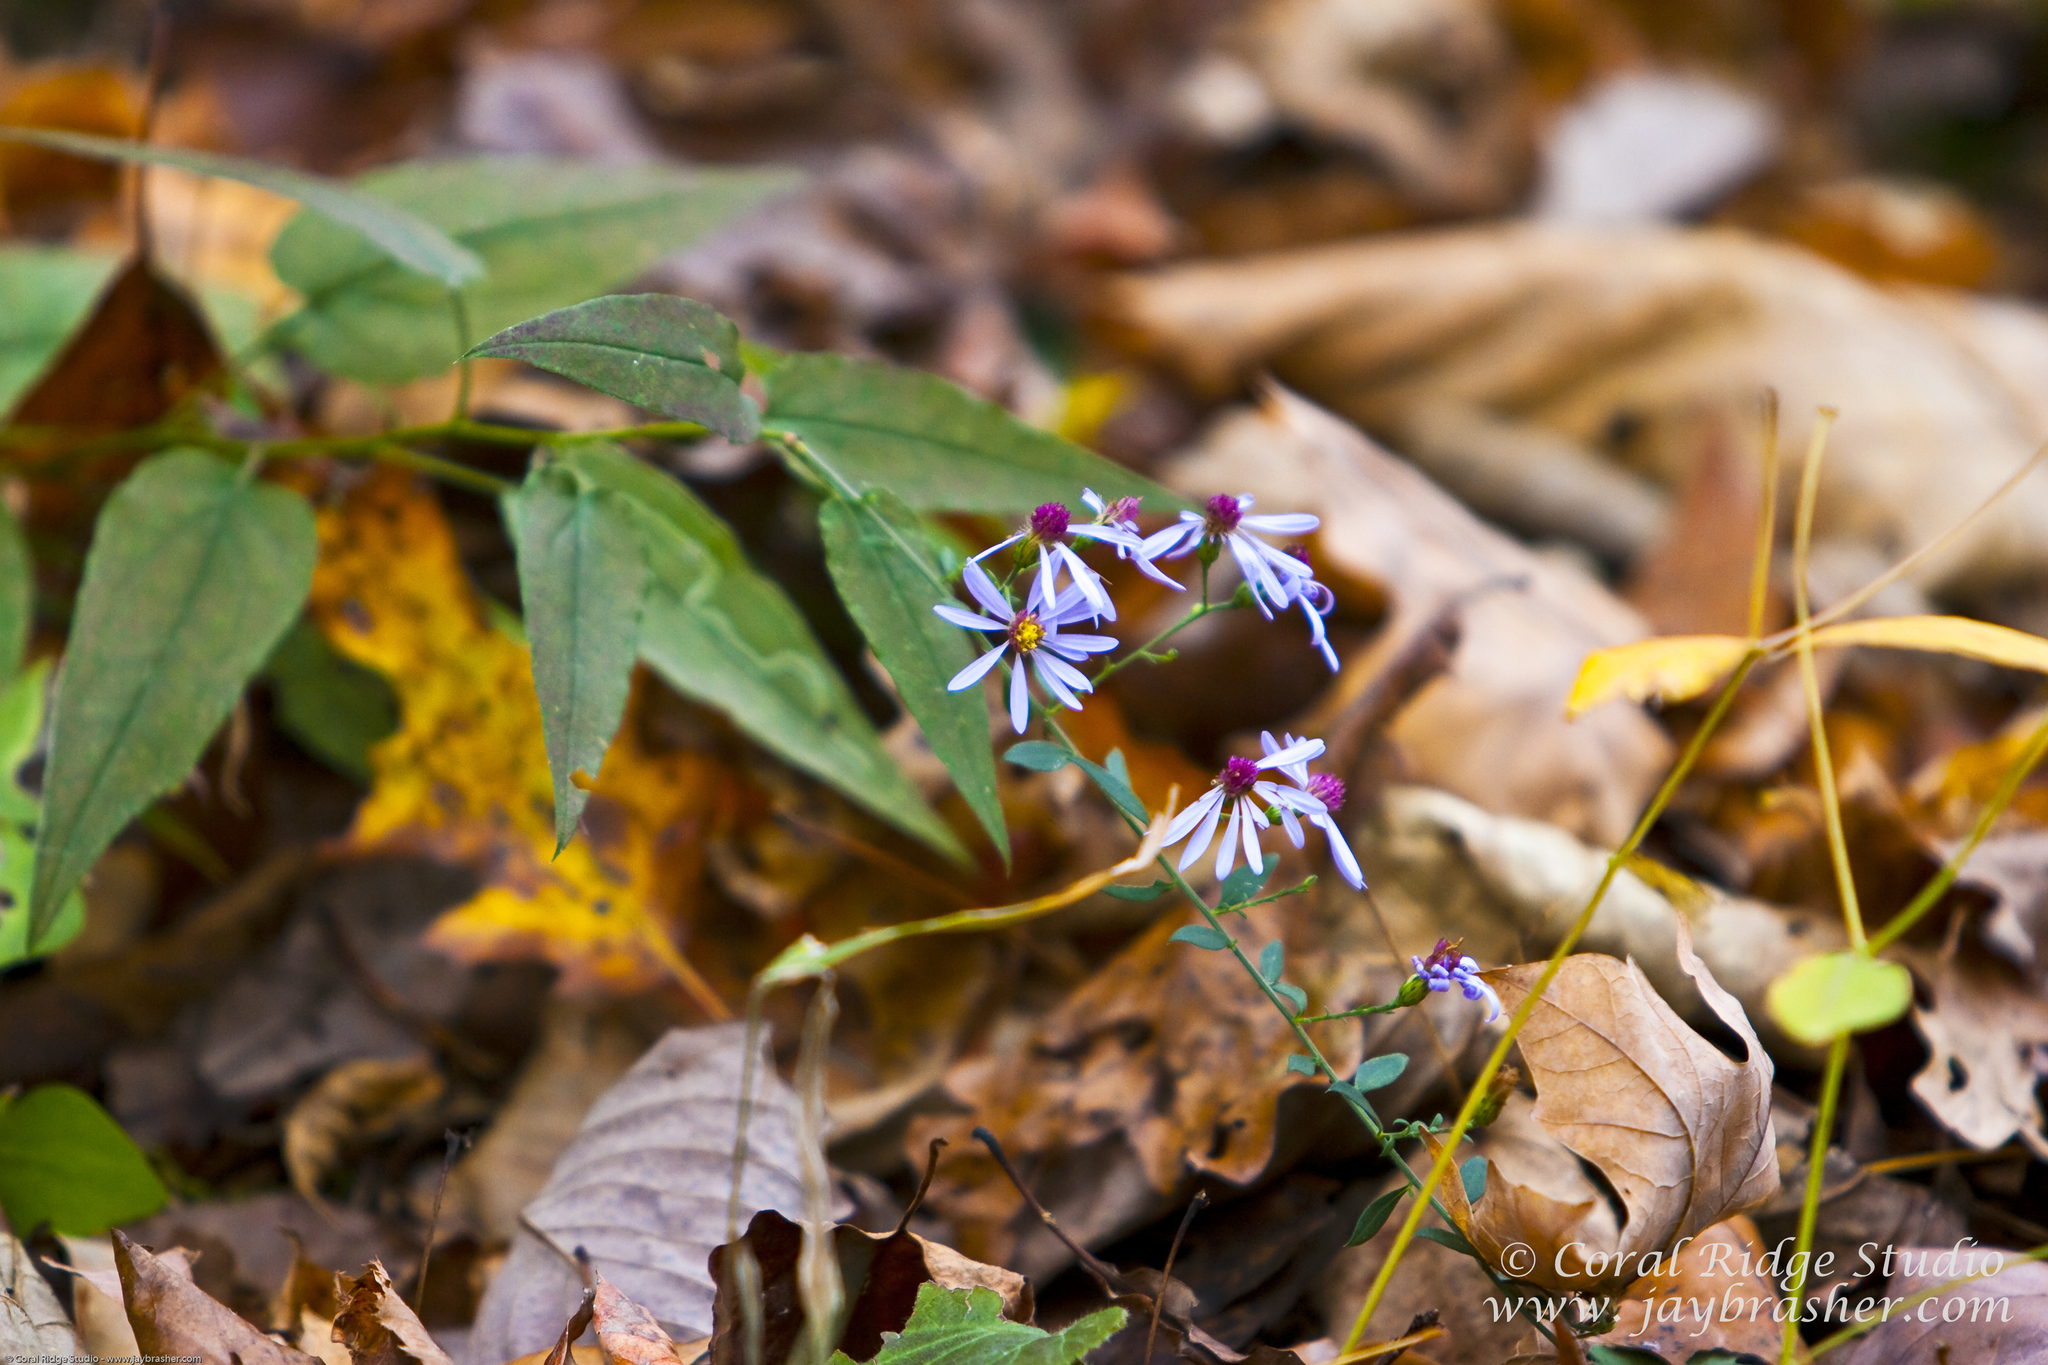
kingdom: Plantae
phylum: Tracheophyta
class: Magnoliopsida
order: Asterales
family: Asteraceae
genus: Symphyotrichum
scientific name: Symphyotrichum shortii
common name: Short's aster
